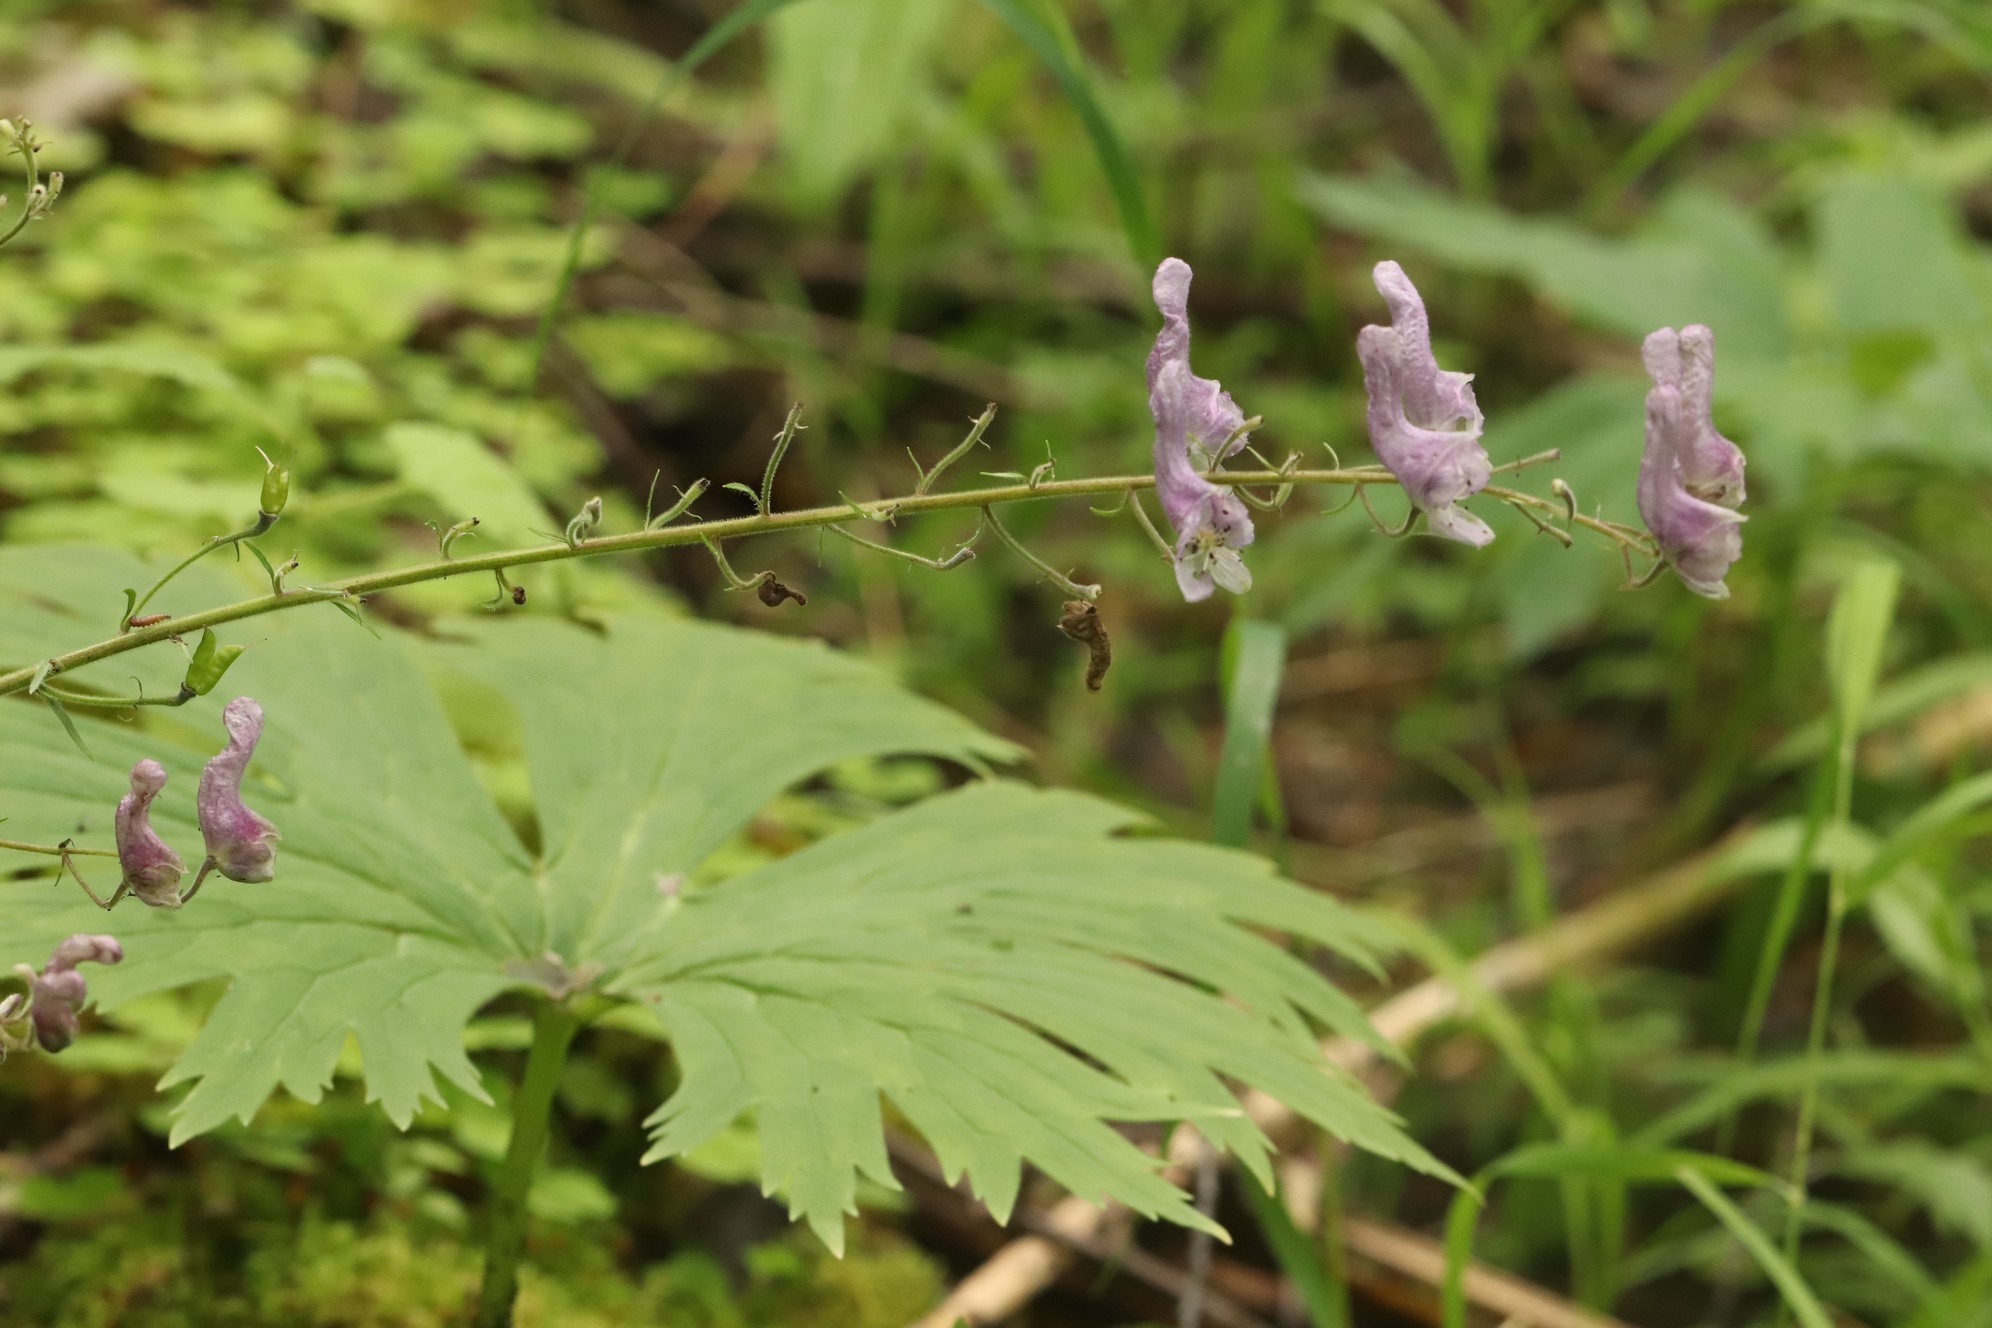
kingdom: Plantae
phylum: Tracheophyta
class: Magnoliopsida
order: Ranunculales
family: Ranunculaceae
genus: Aconitum
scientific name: Aconitum septentrionale
